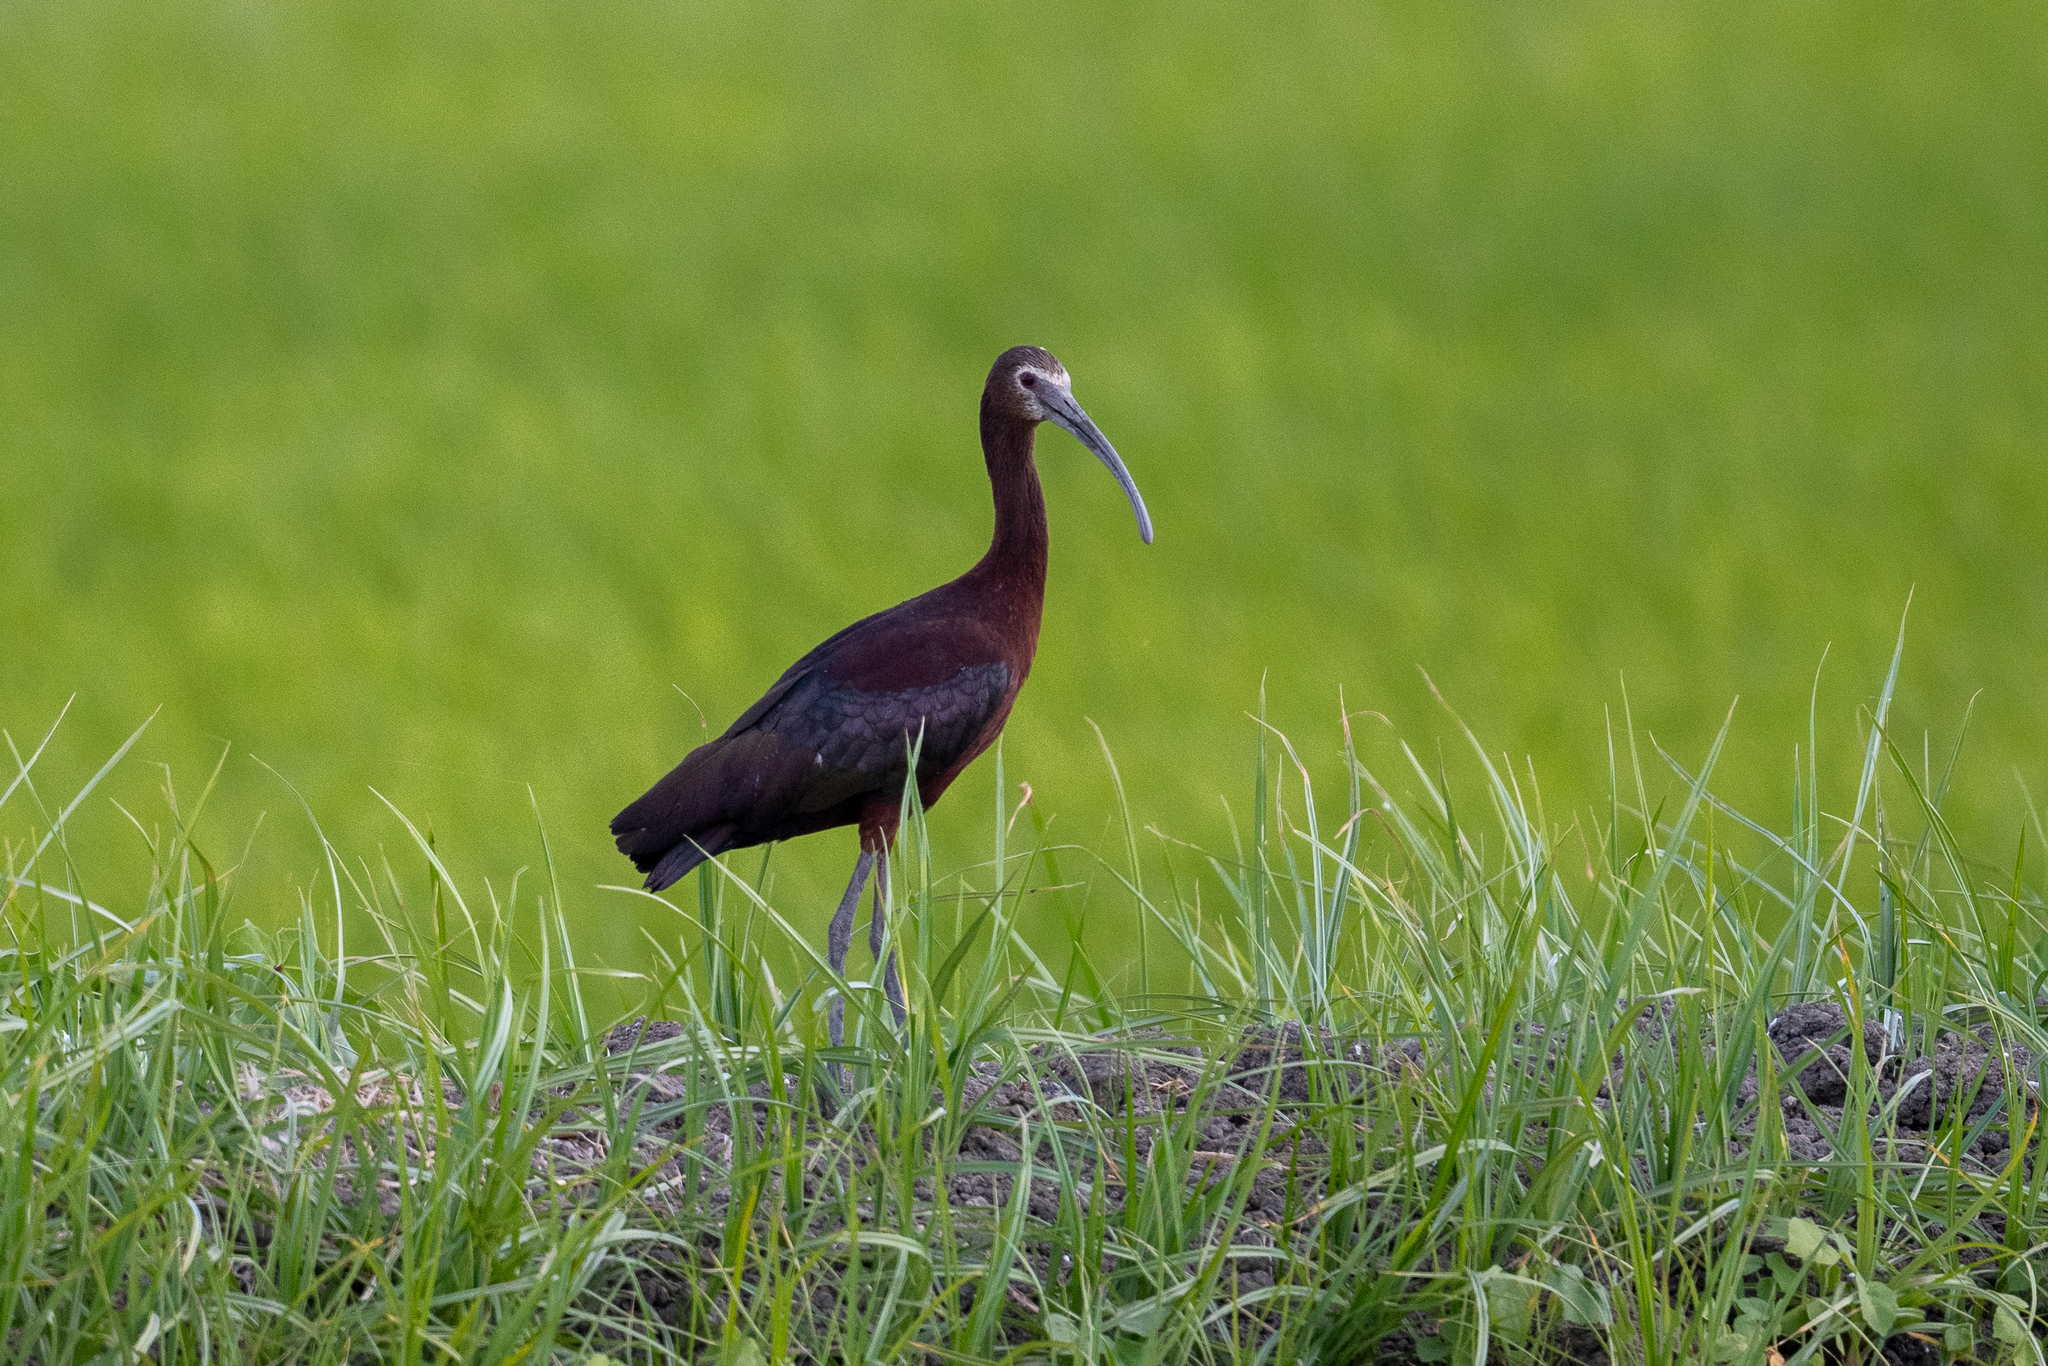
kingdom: Animalia
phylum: Chordata
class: Aves
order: Pelecaniformes
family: Threskiornithidae
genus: Plegadis
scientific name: Plegadis chihi
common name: White-faced ibis
